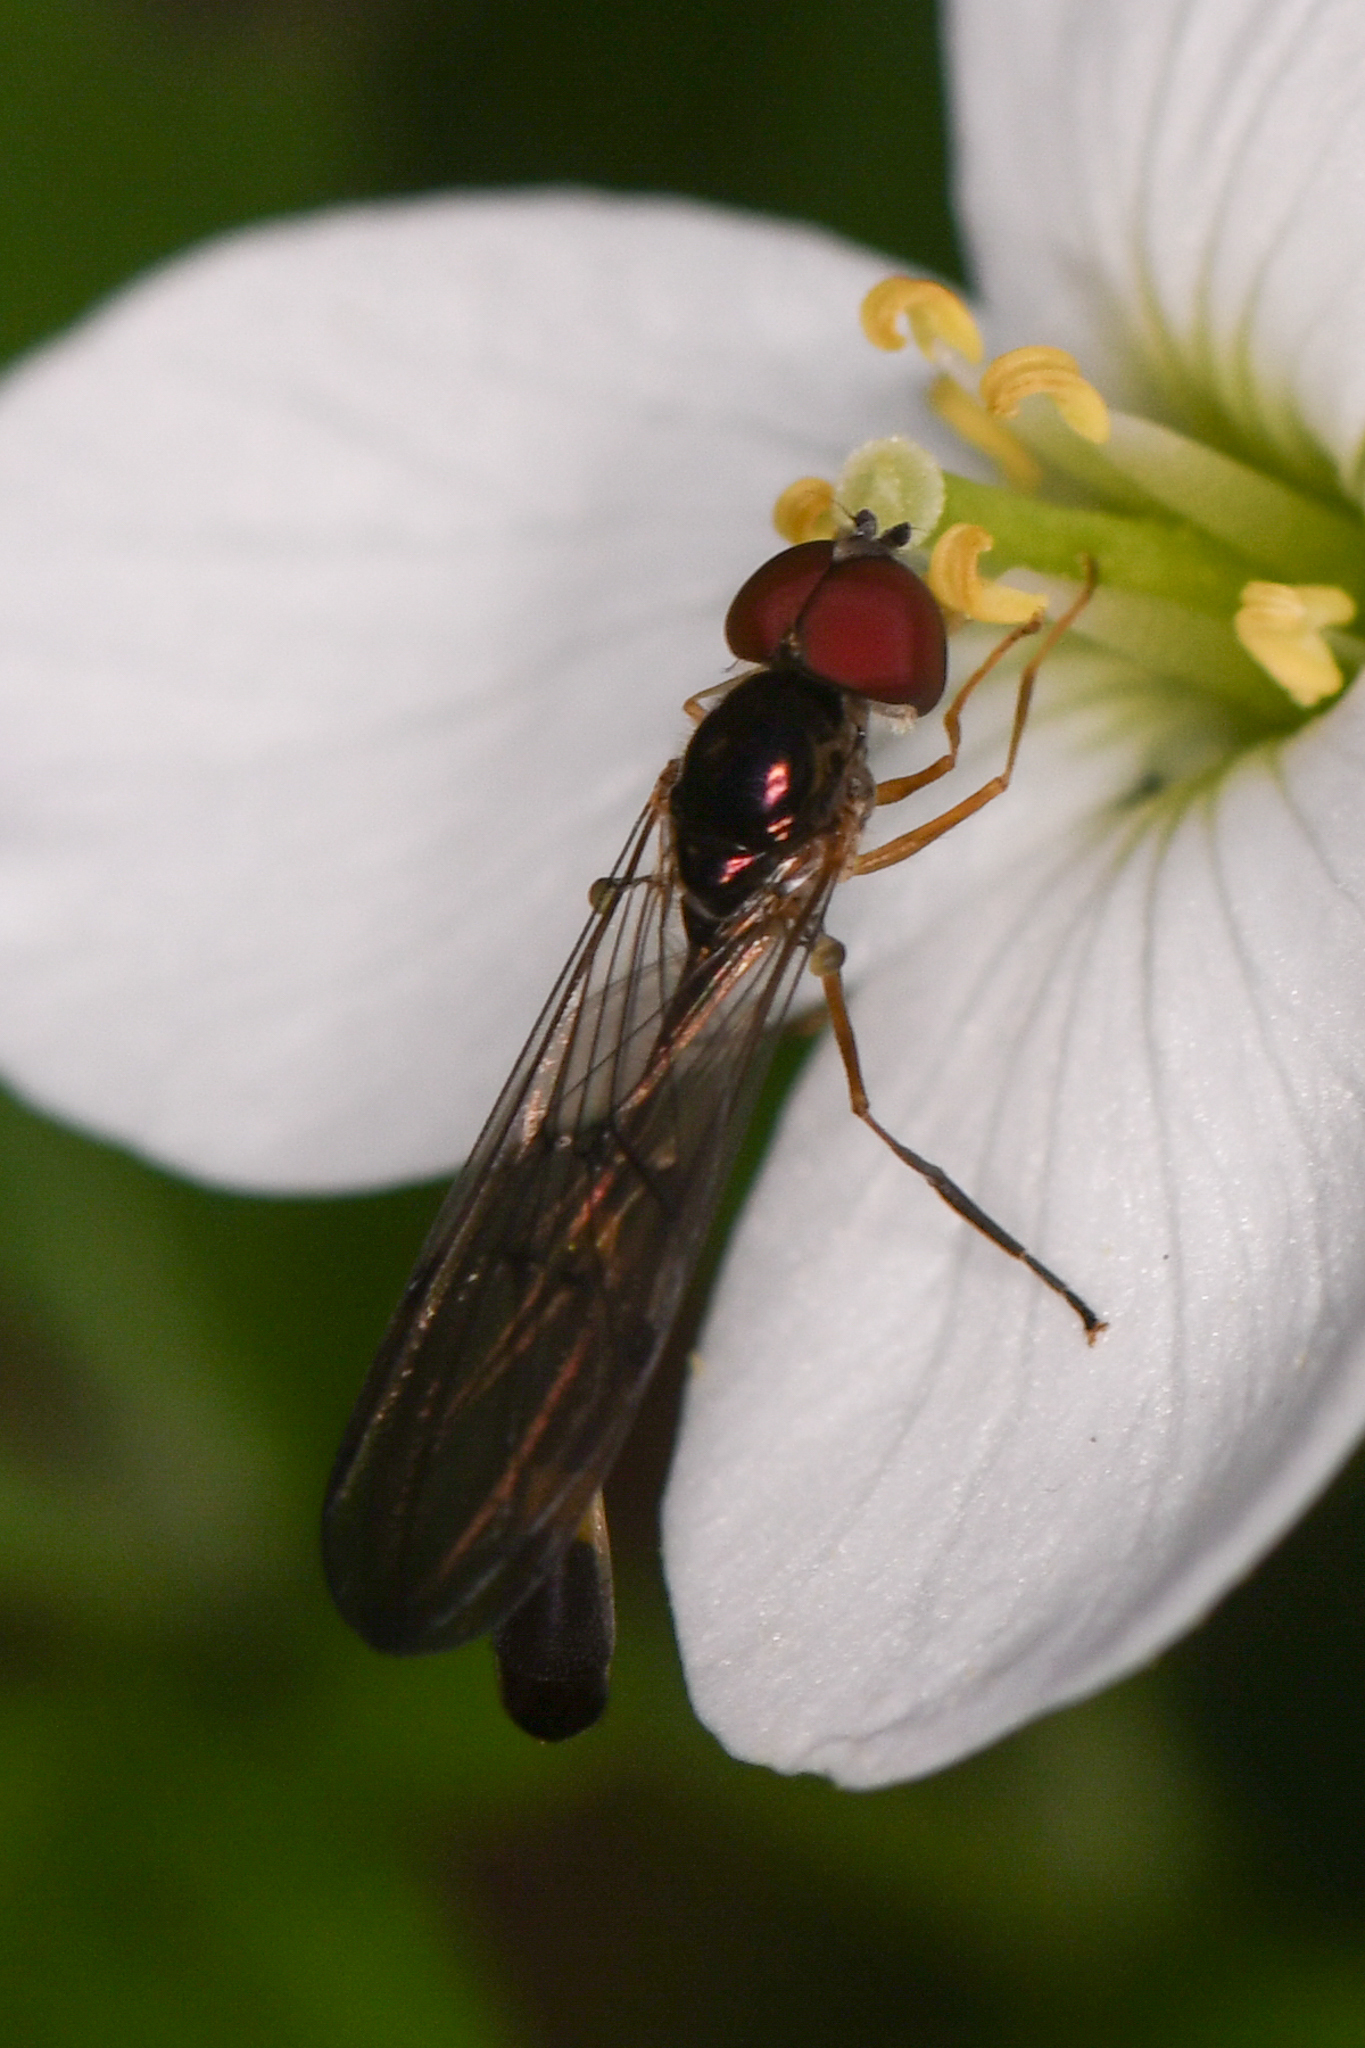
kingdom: Animalia
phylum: Arthropoda
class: Insecta
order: Diptera
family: Syrphidae
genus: Baccha
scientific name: Baccha cognata
